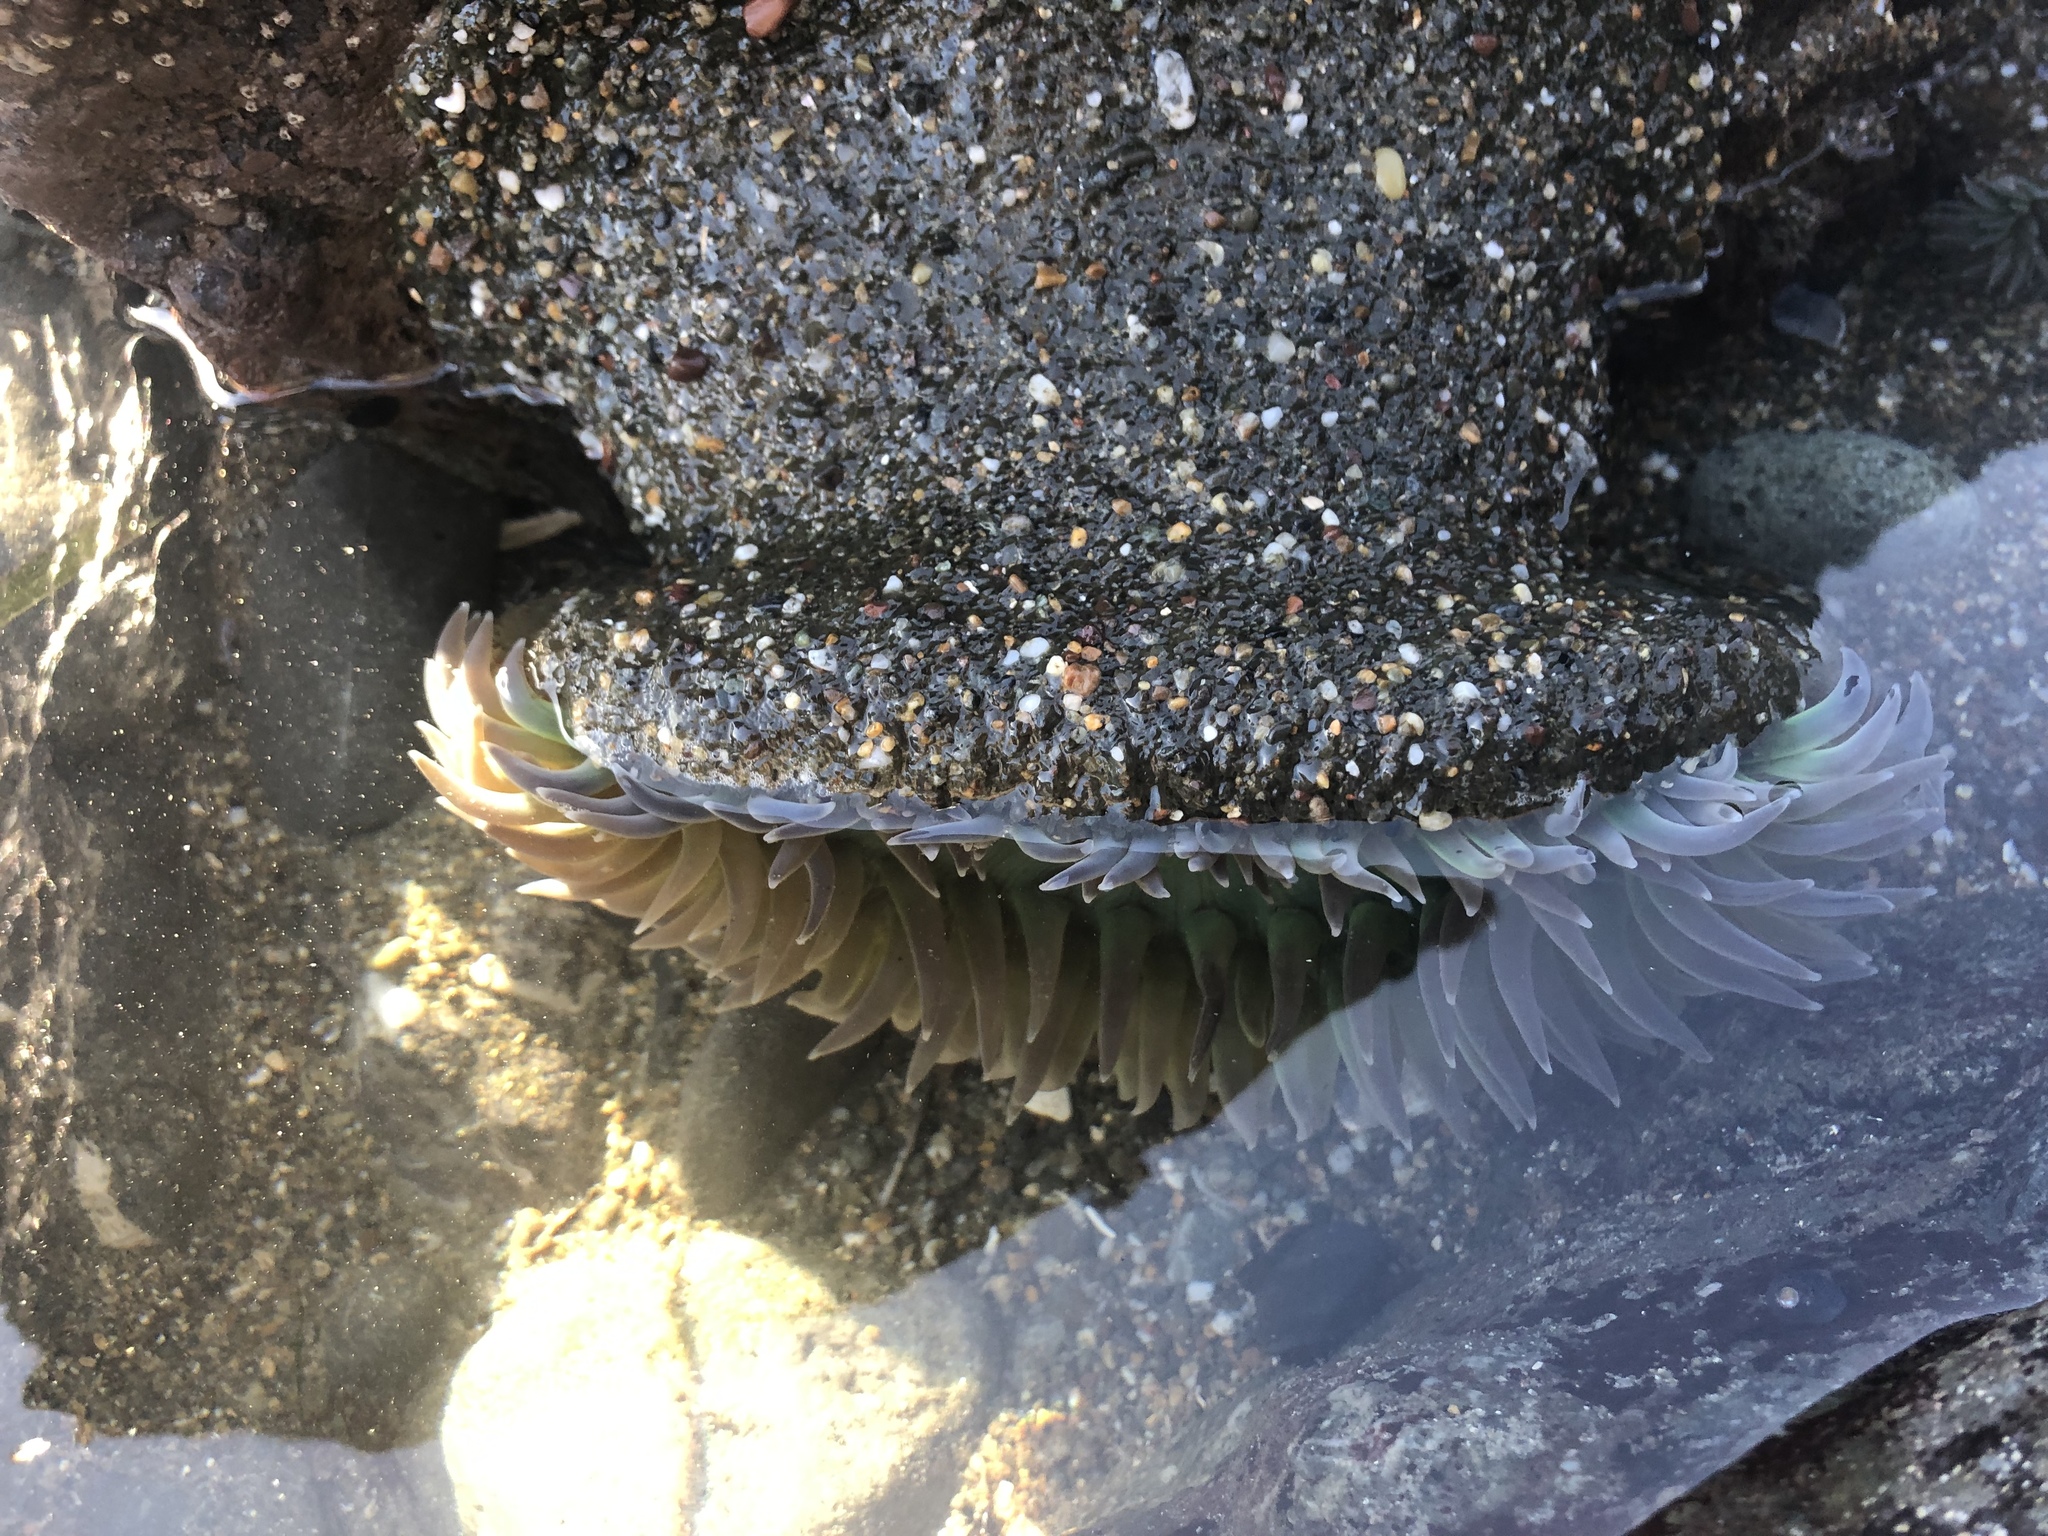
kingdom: Animalia
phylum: Cnidaria
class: Anthozoa
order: Actiniaria
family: Actiniidae
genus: Anthopleura
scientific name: Anthopleura xanthogrammica
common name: Giant green anemone
